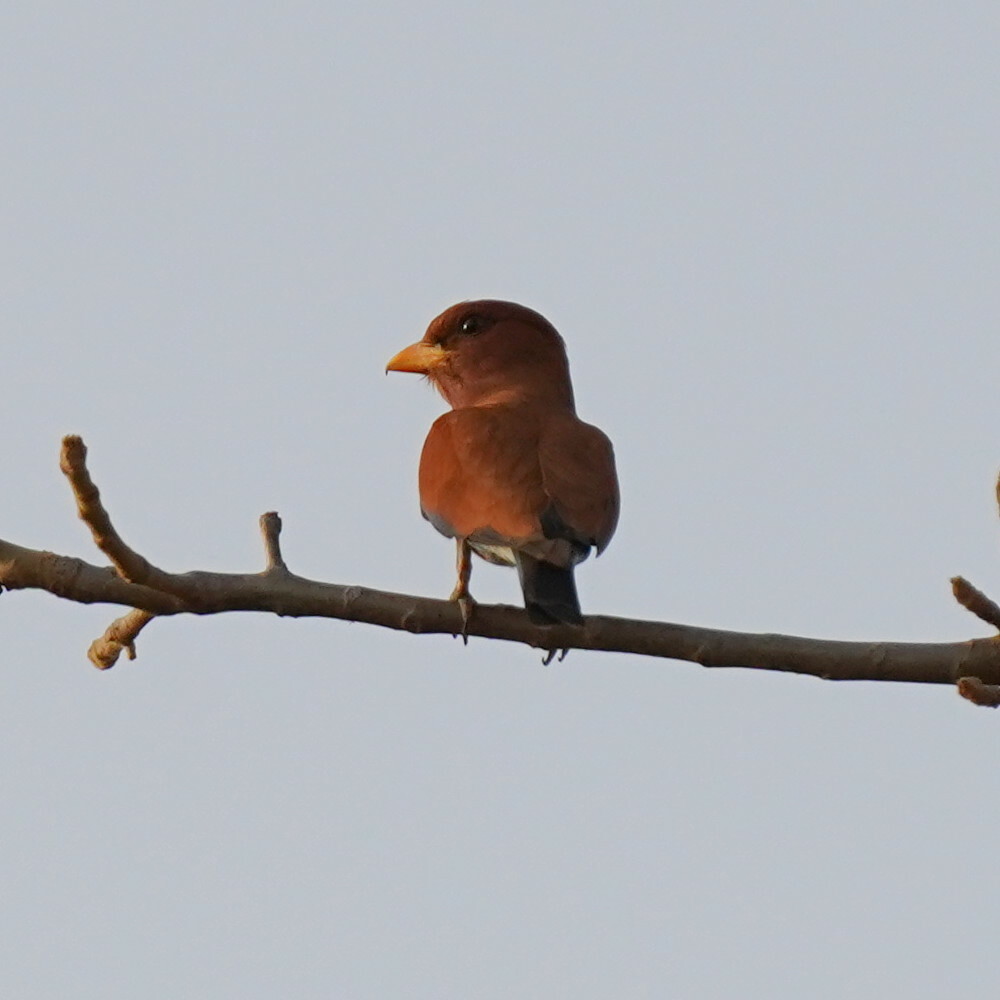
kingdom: Animalia
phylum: Chordata
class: Aves
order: Coraciiformes
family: Coraciidae
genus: Eurystomus
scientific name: Eurystomus glaucurus
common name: Broad-billed roller
